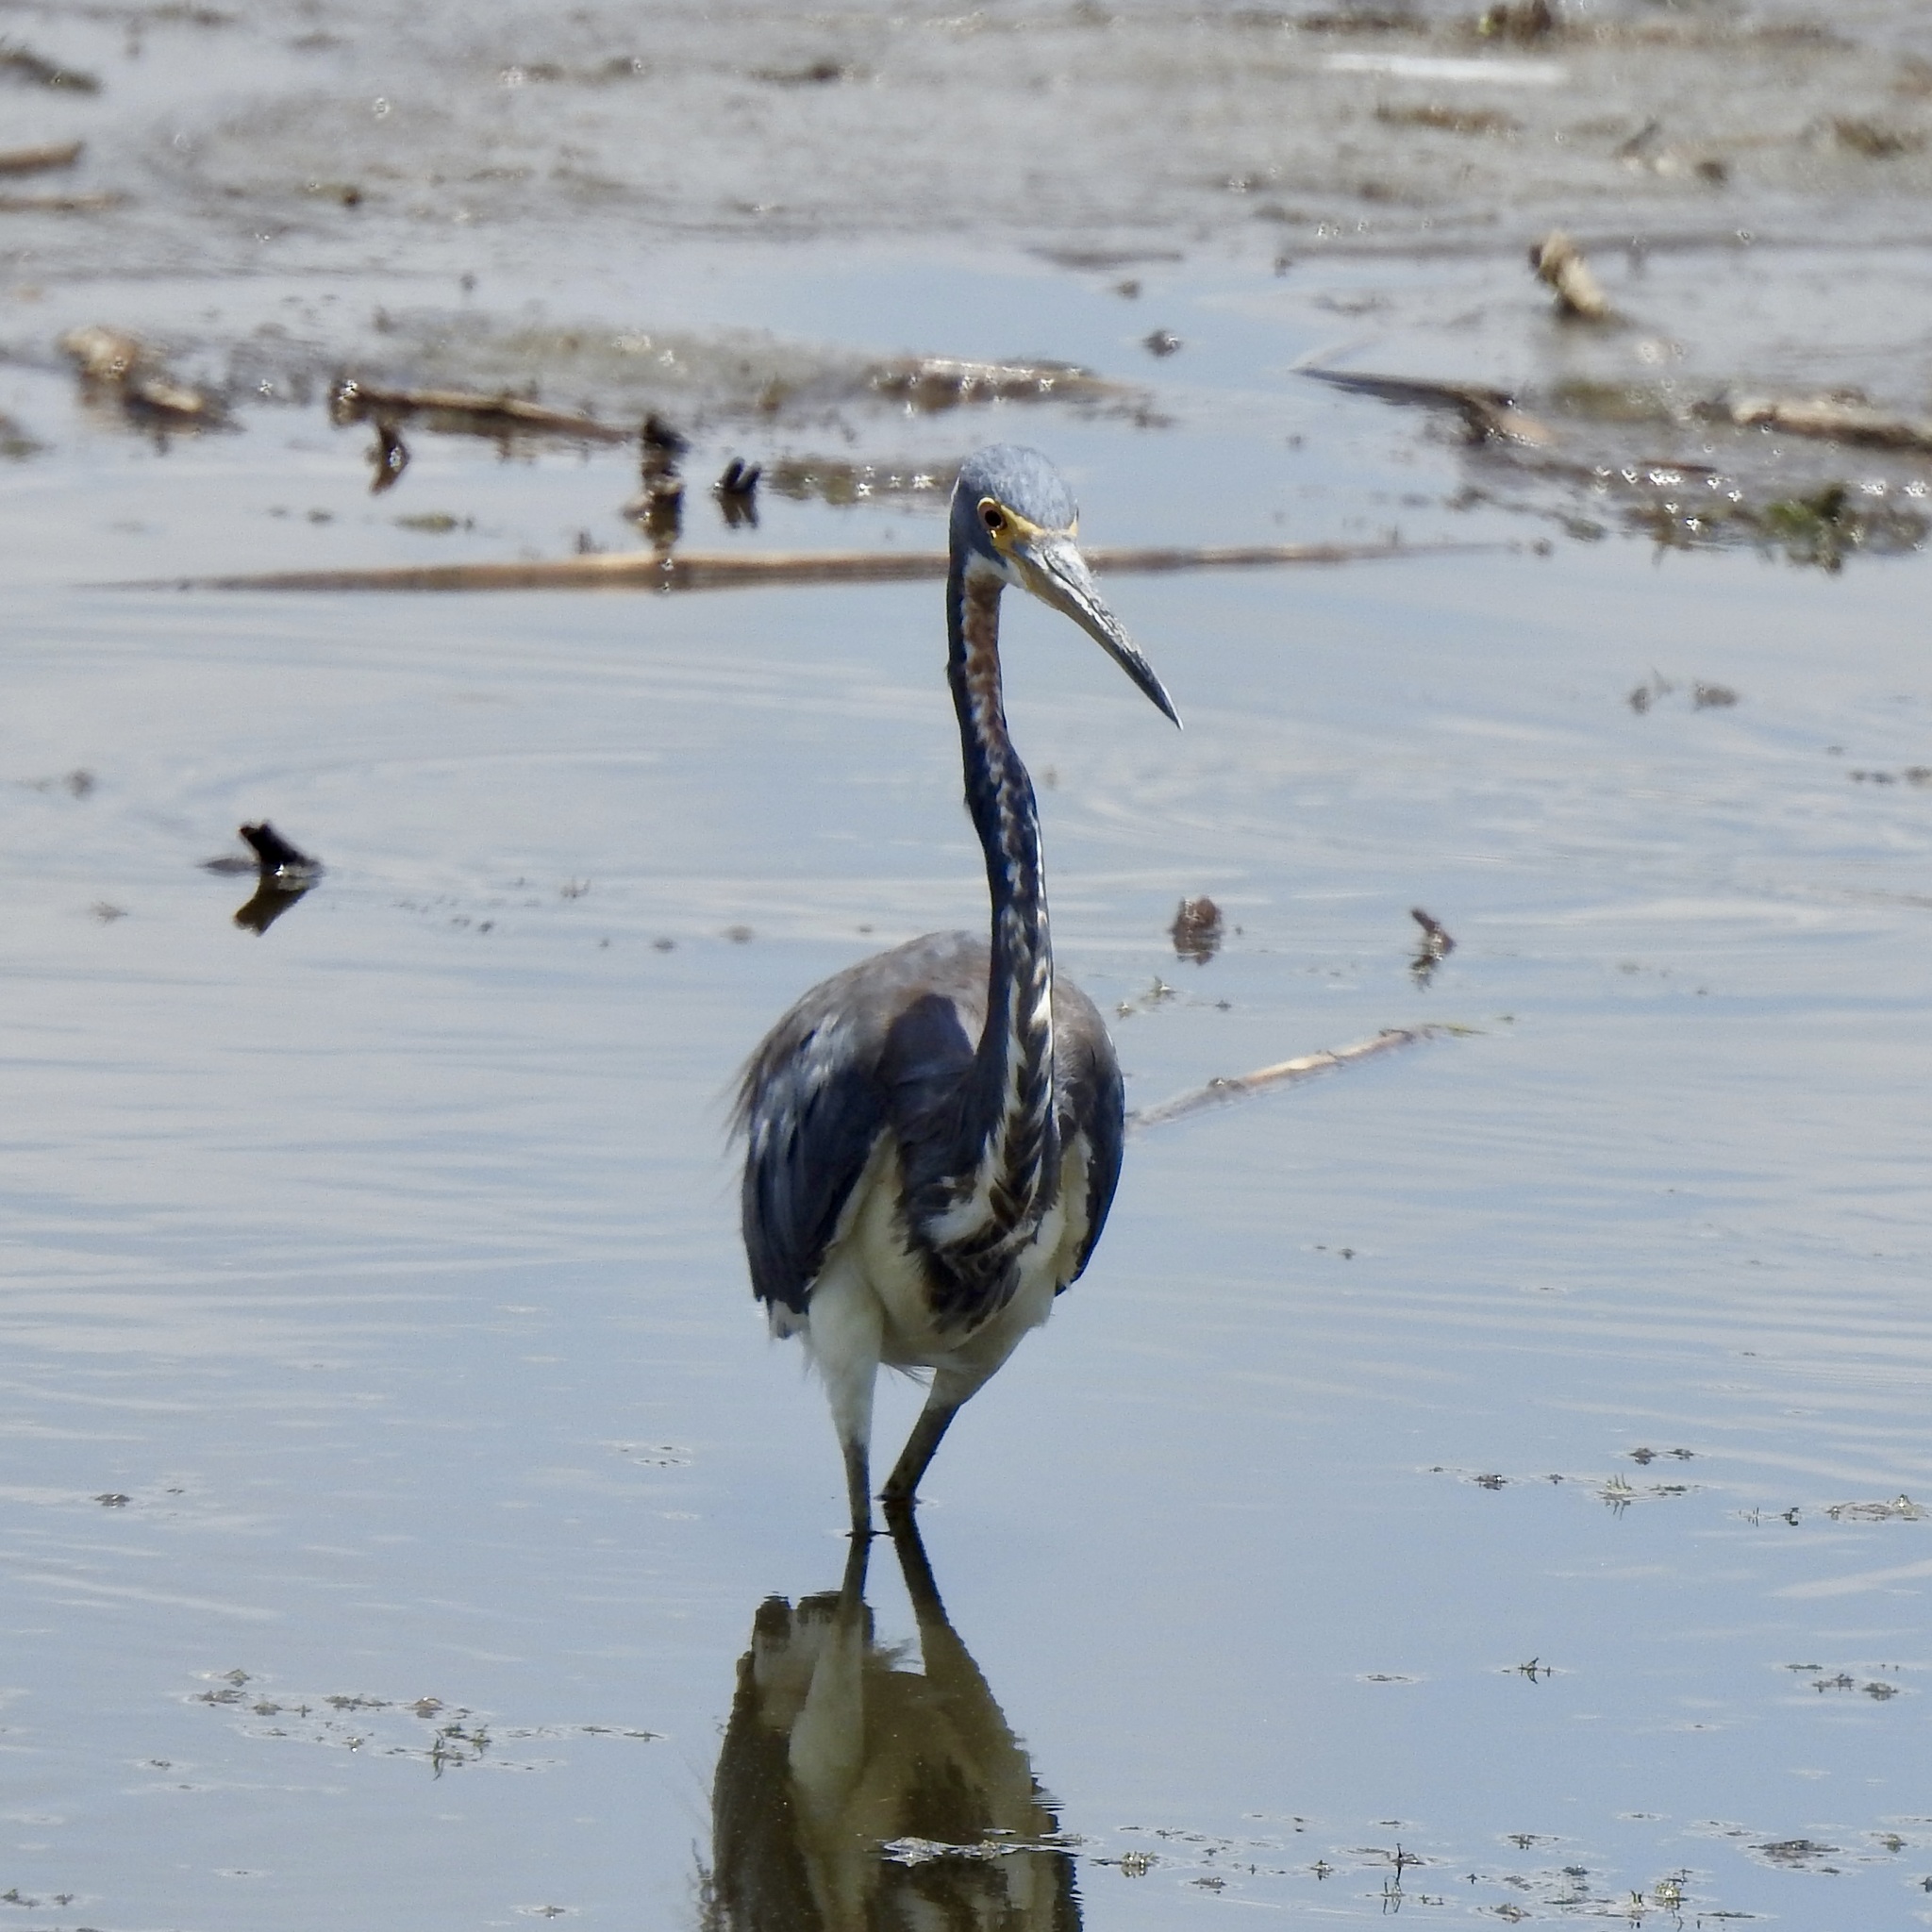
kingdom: Animalia
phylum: Chordata
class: Aves
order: Pelecaniformes
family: Ardeidae
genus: Egretta
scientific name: Egretta tricolor
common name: Tricolored heron
